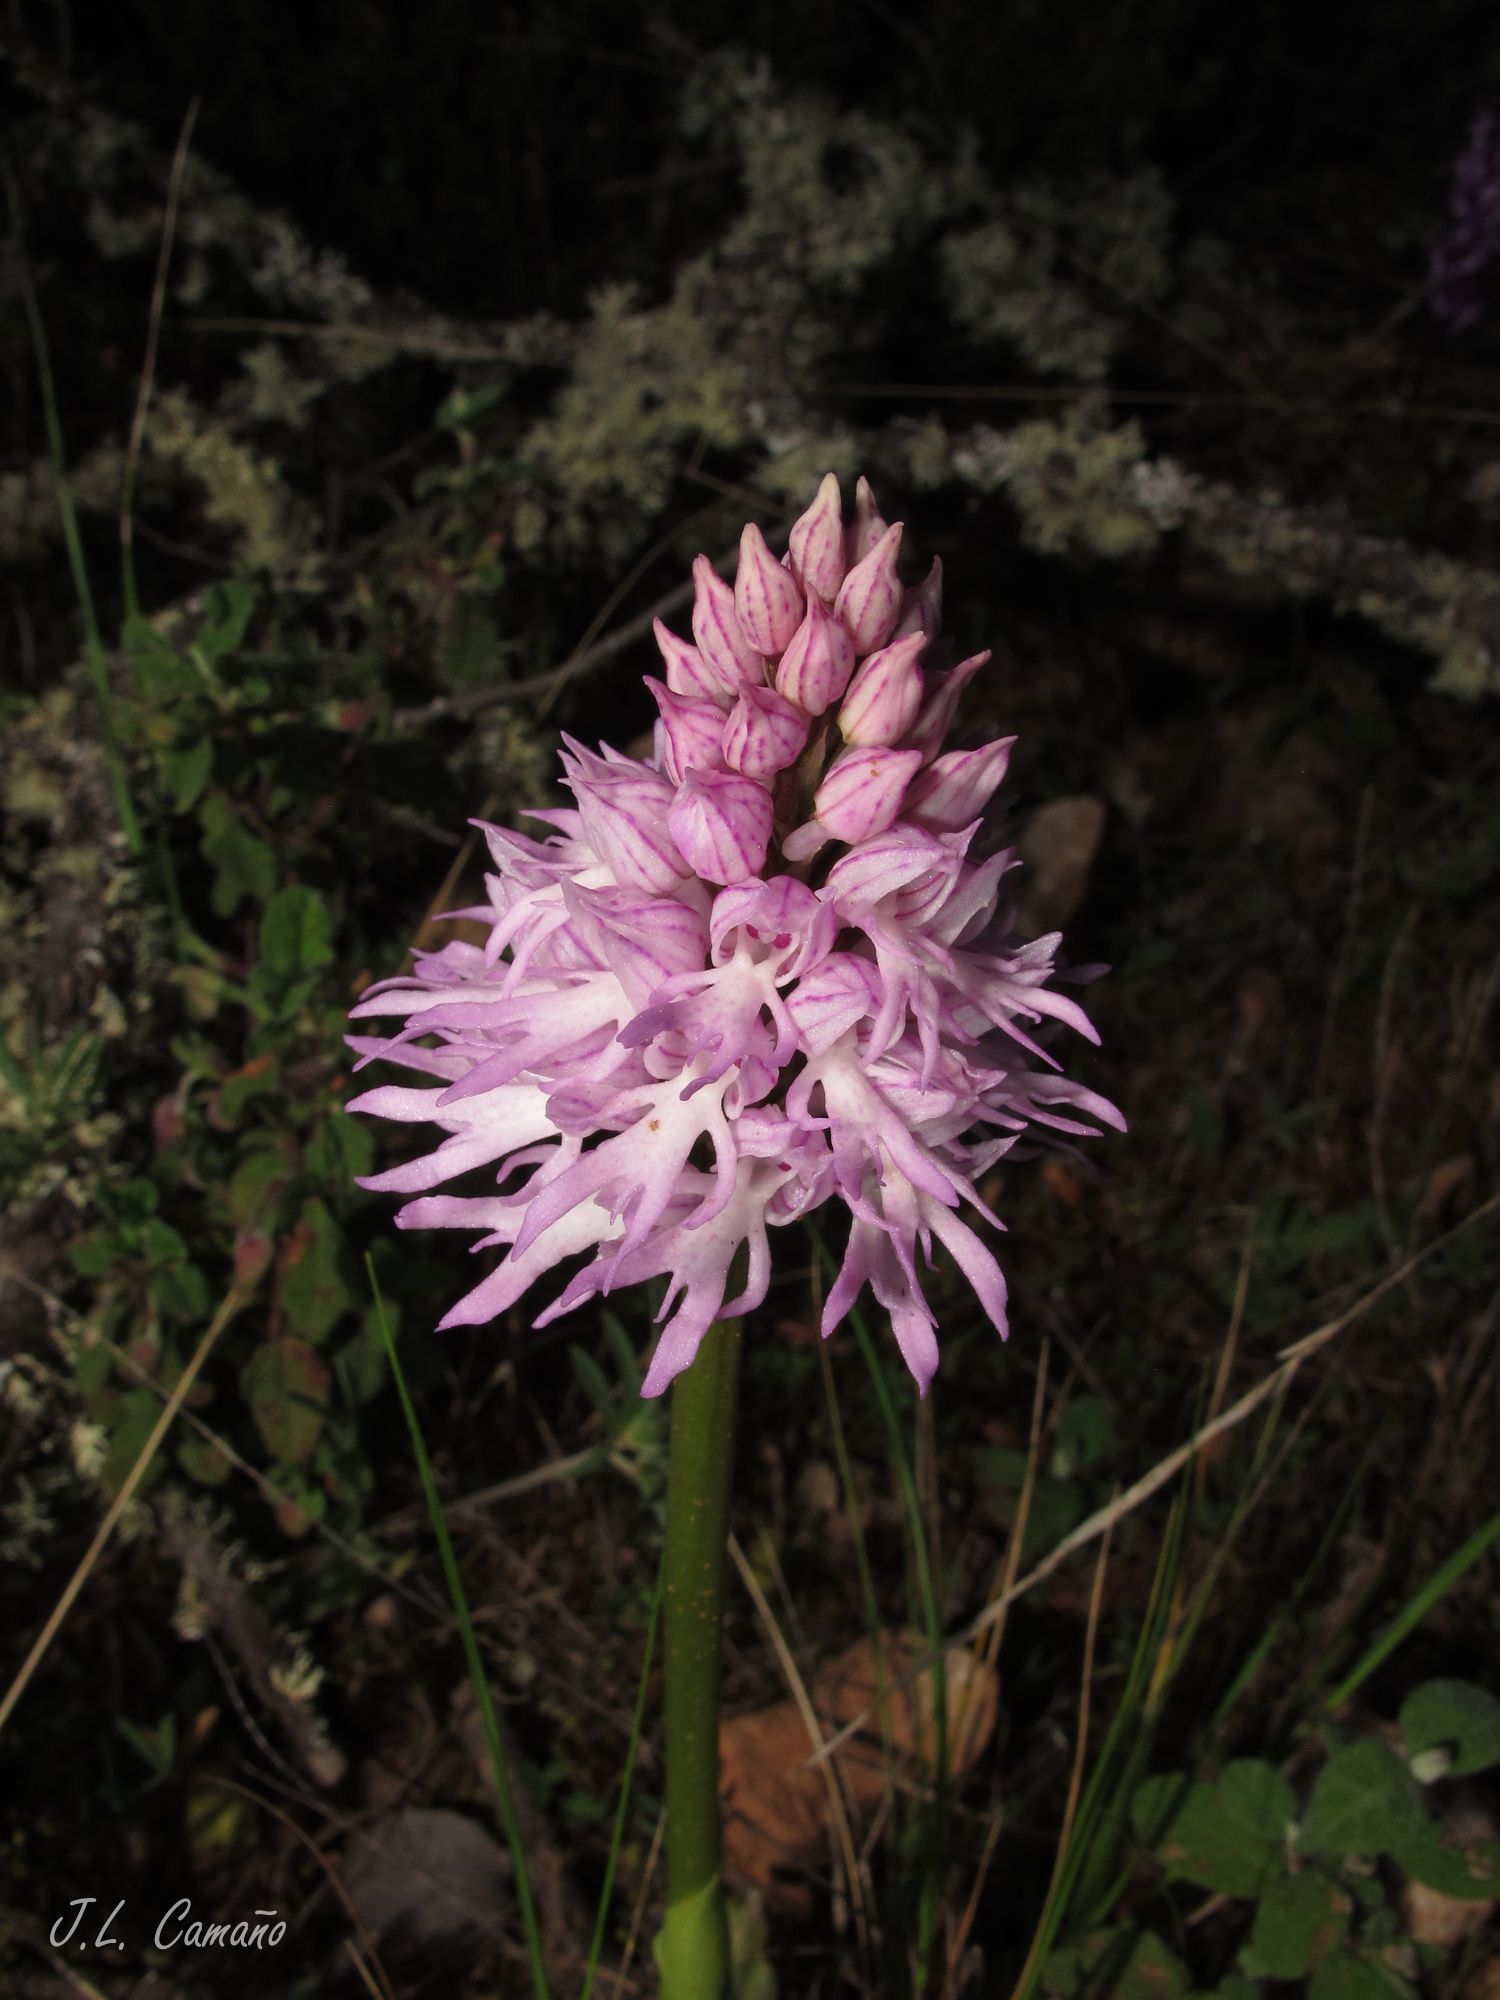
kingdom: Plantae
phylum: Tracheophyta
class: Liliopsida
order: Asparagales
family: Orchidaceae
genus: Orchis
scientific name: Orchis italica
